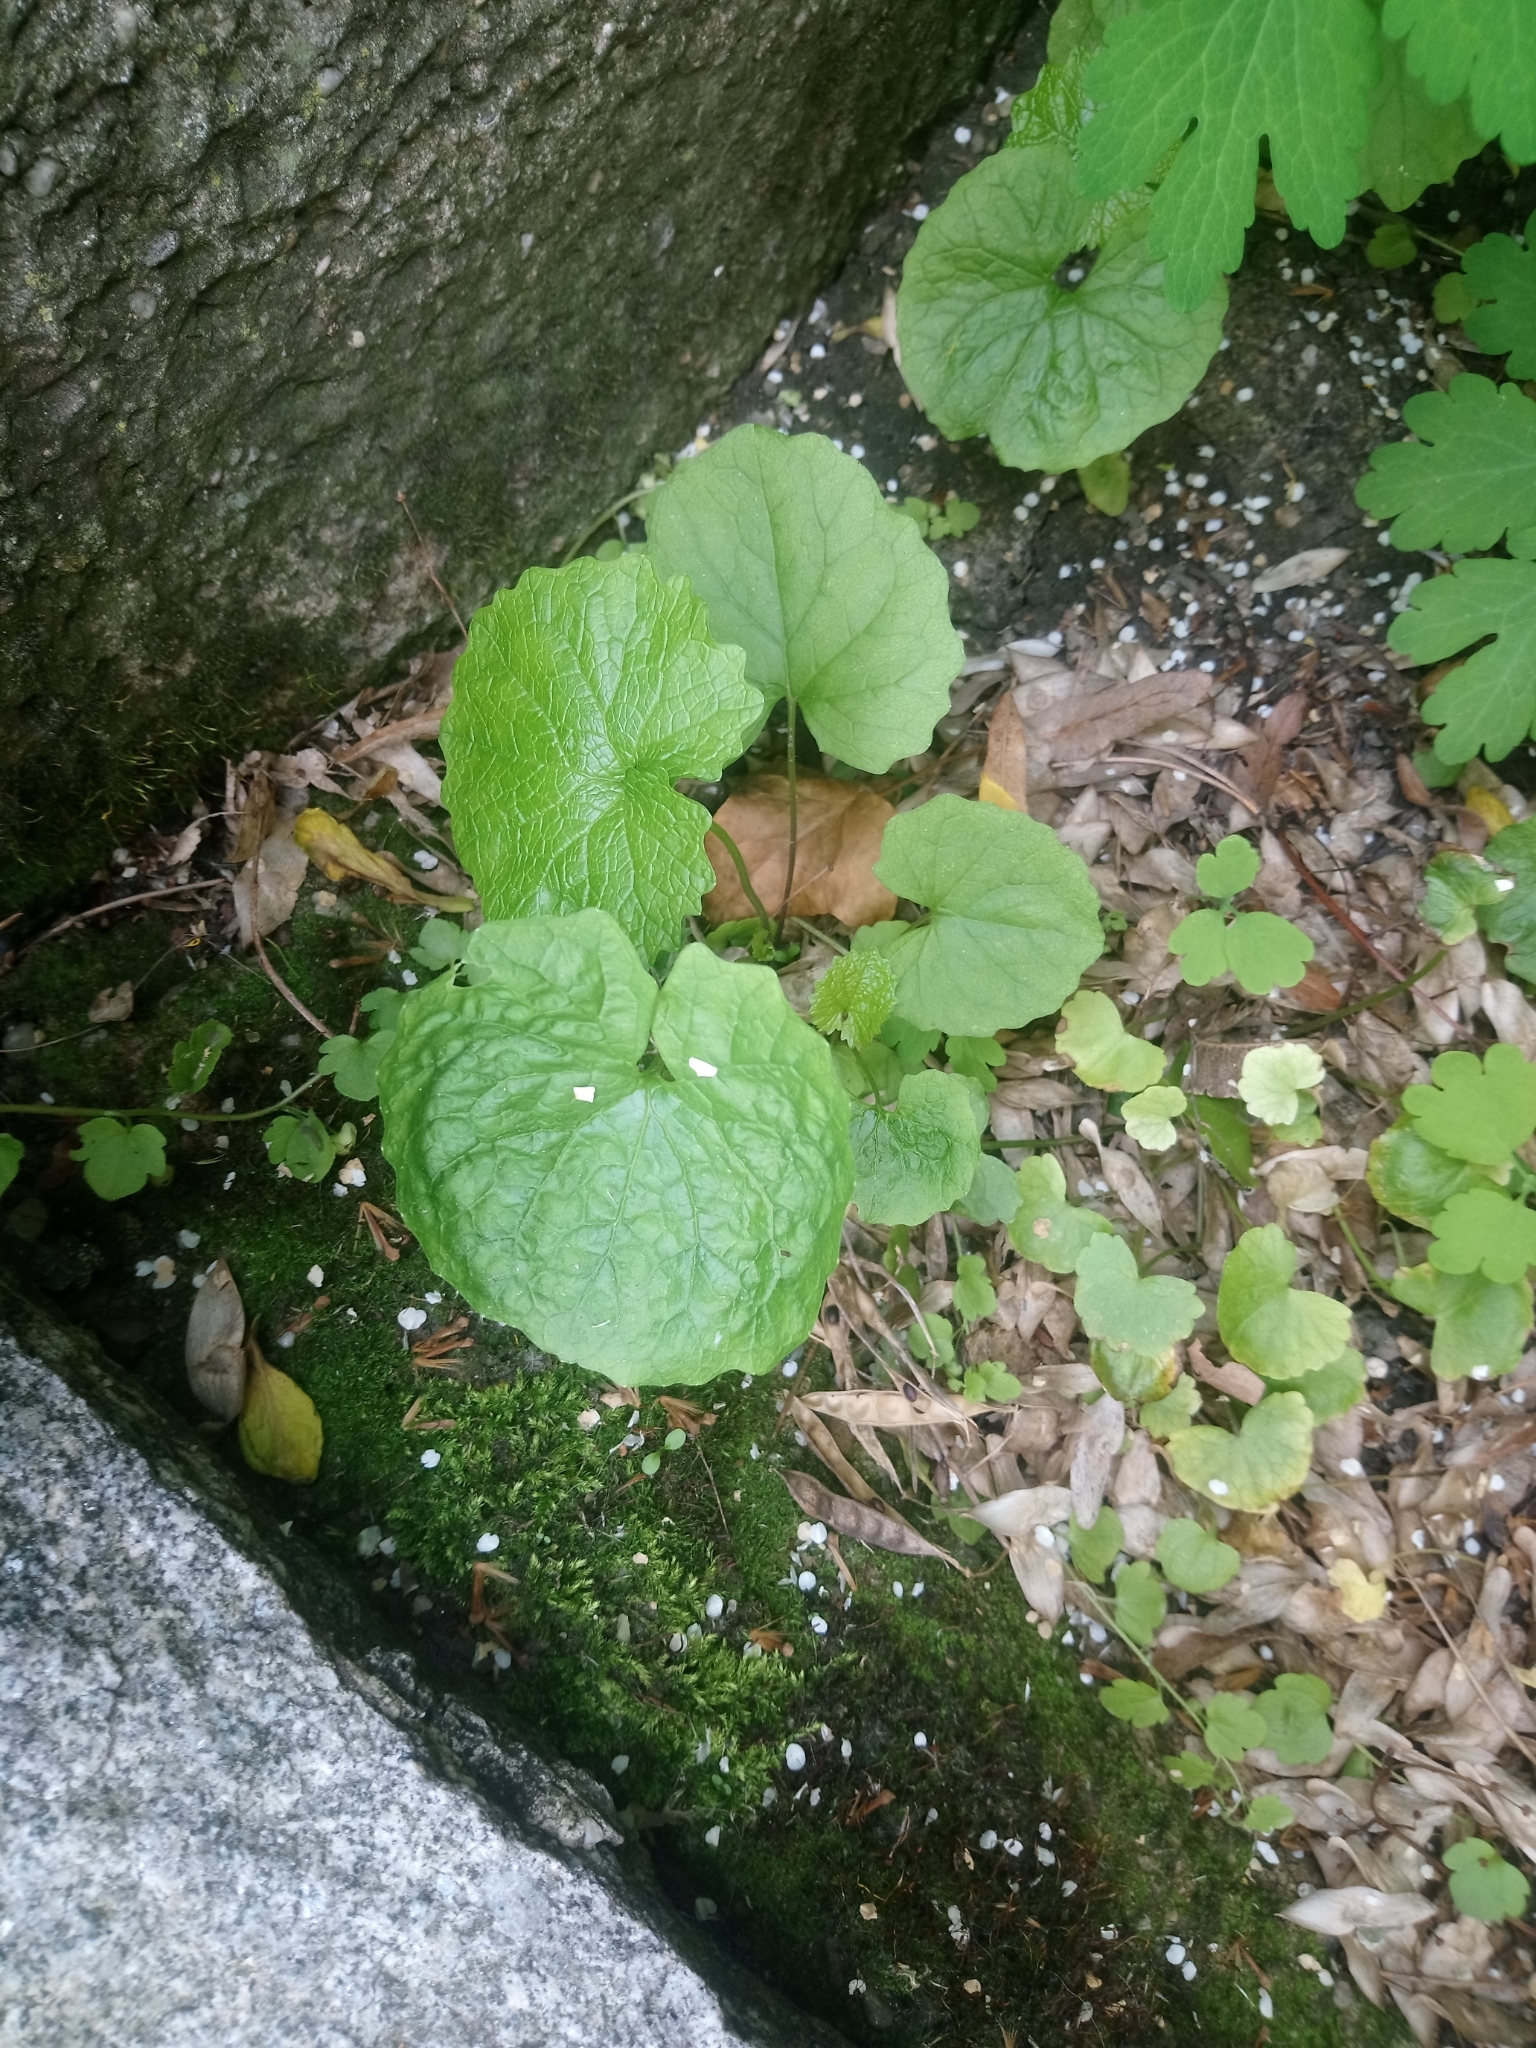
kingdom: Plantae
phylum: Tracheophyta
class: Magnoliopsida
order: Brassicales
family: Brassicaceae
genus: Alliaria
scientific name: Alliaria petiolata
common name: Garlic mustard
